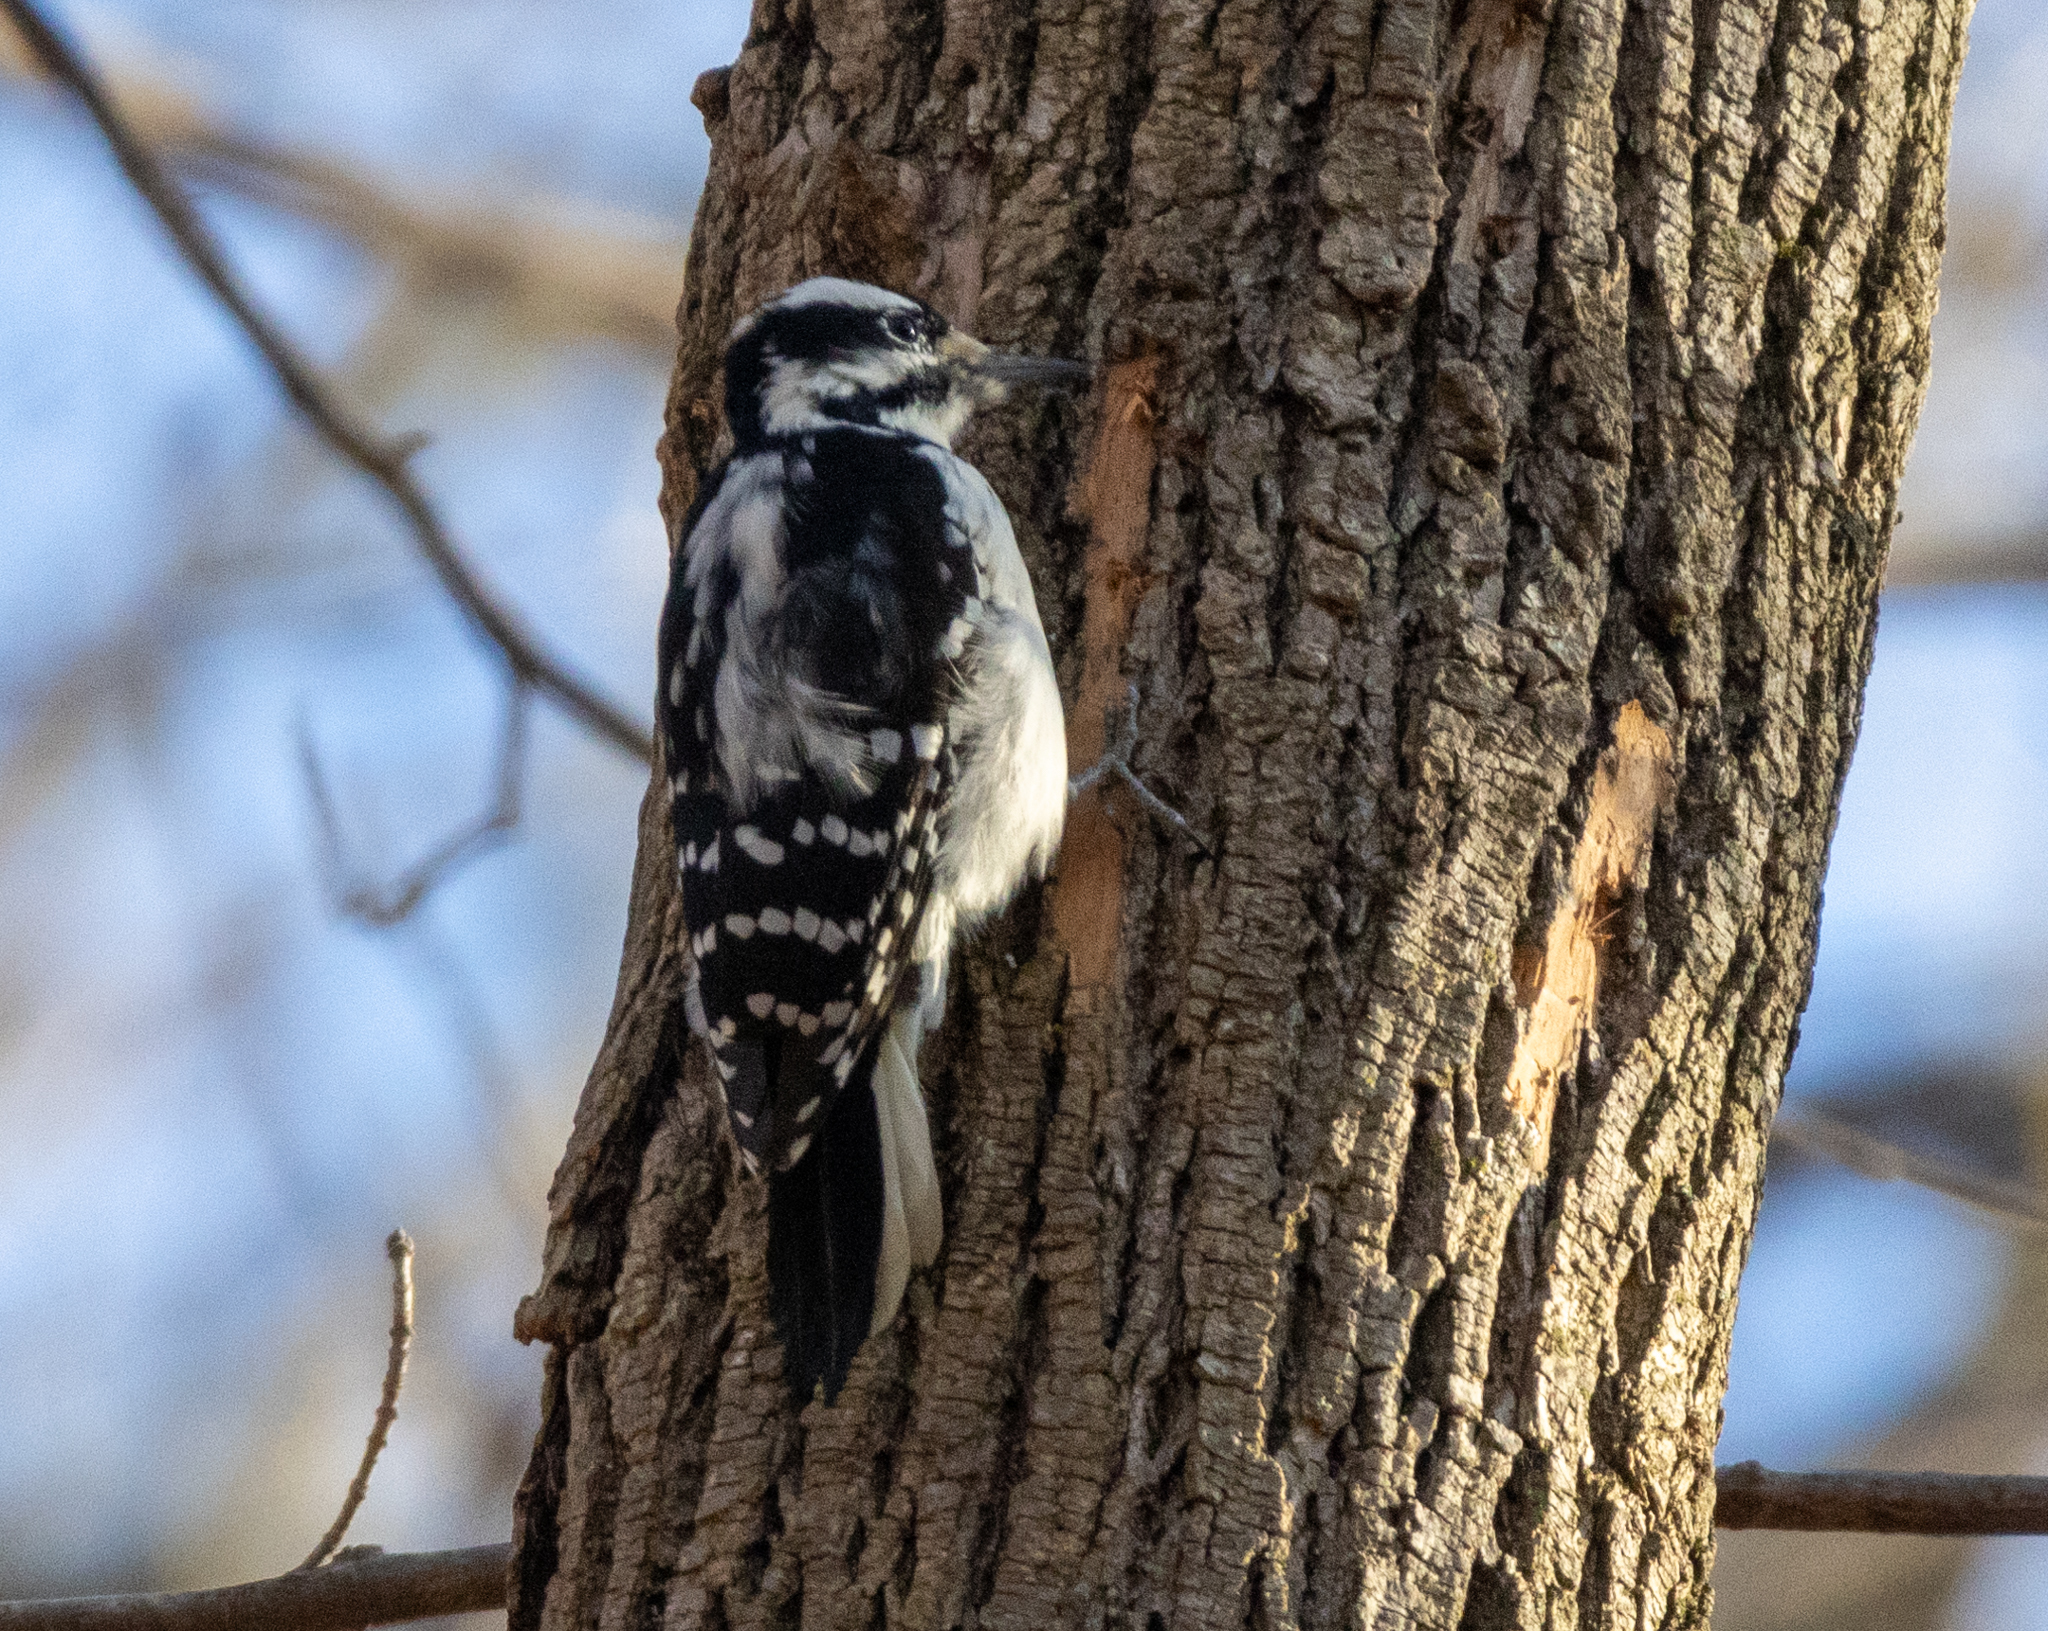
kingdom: Animalia
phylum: Chordata
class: Aves
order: Piciformes
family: Picidae
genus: Leuconotopicus
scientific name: Leuconotopicus villosus
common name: Hairy woodpecker
